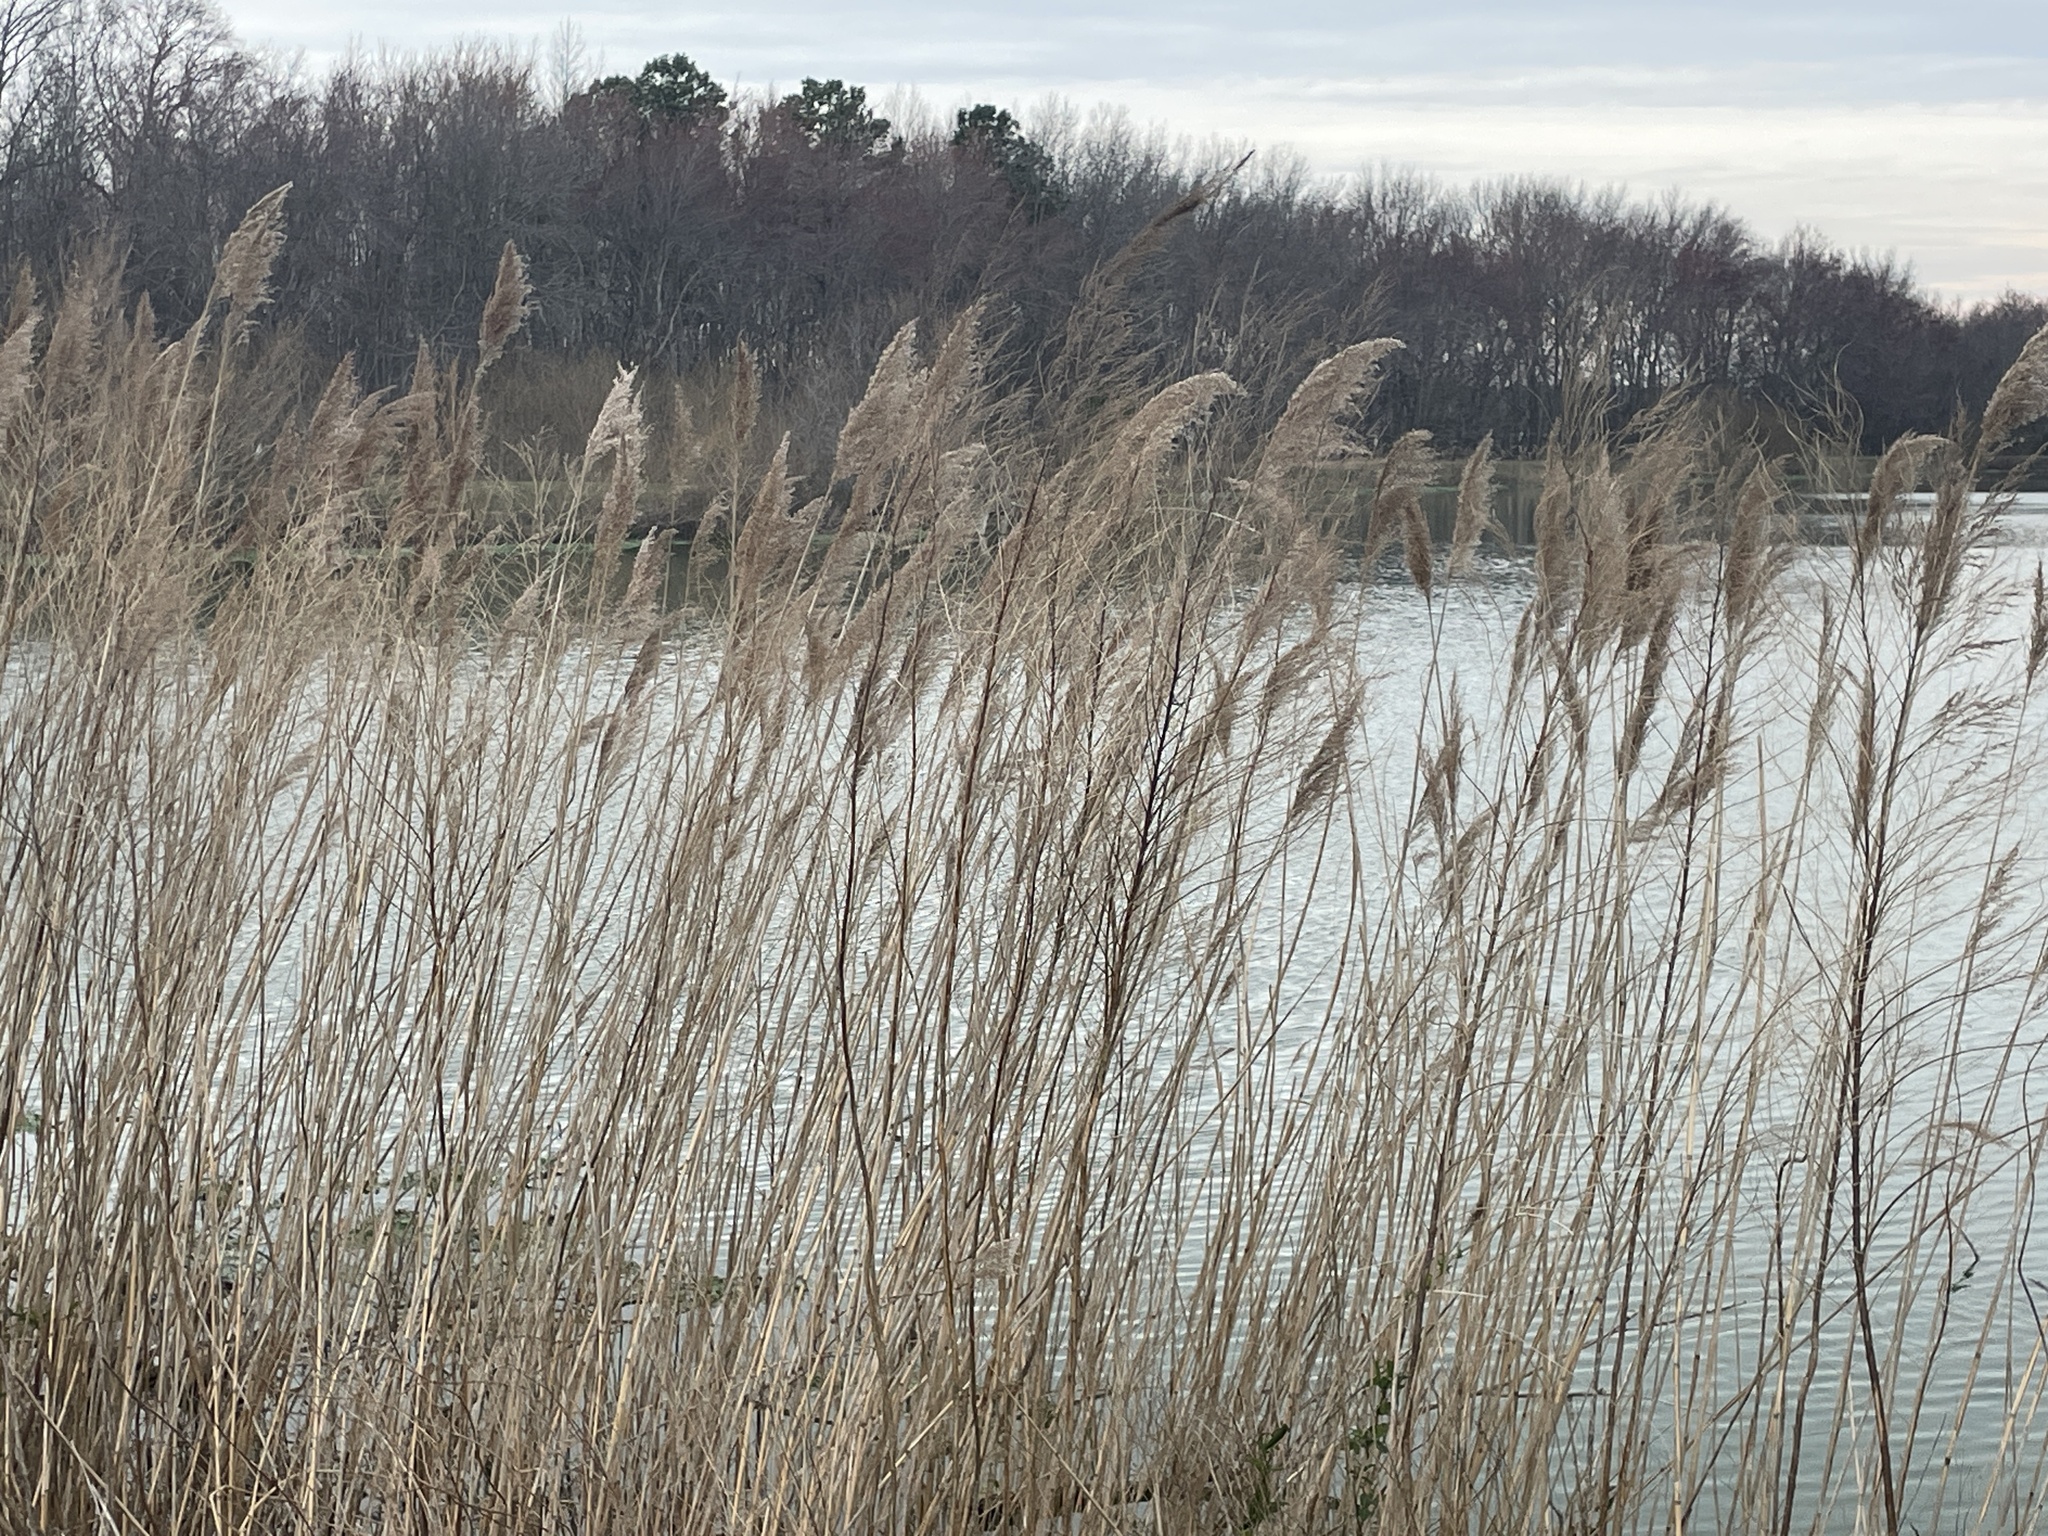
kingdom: Plantae
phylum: Tracheophyta
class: Liliopsida
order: Poales
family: Poaceae
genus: Phragmites
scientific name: Phragmites australis
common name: Common reed
